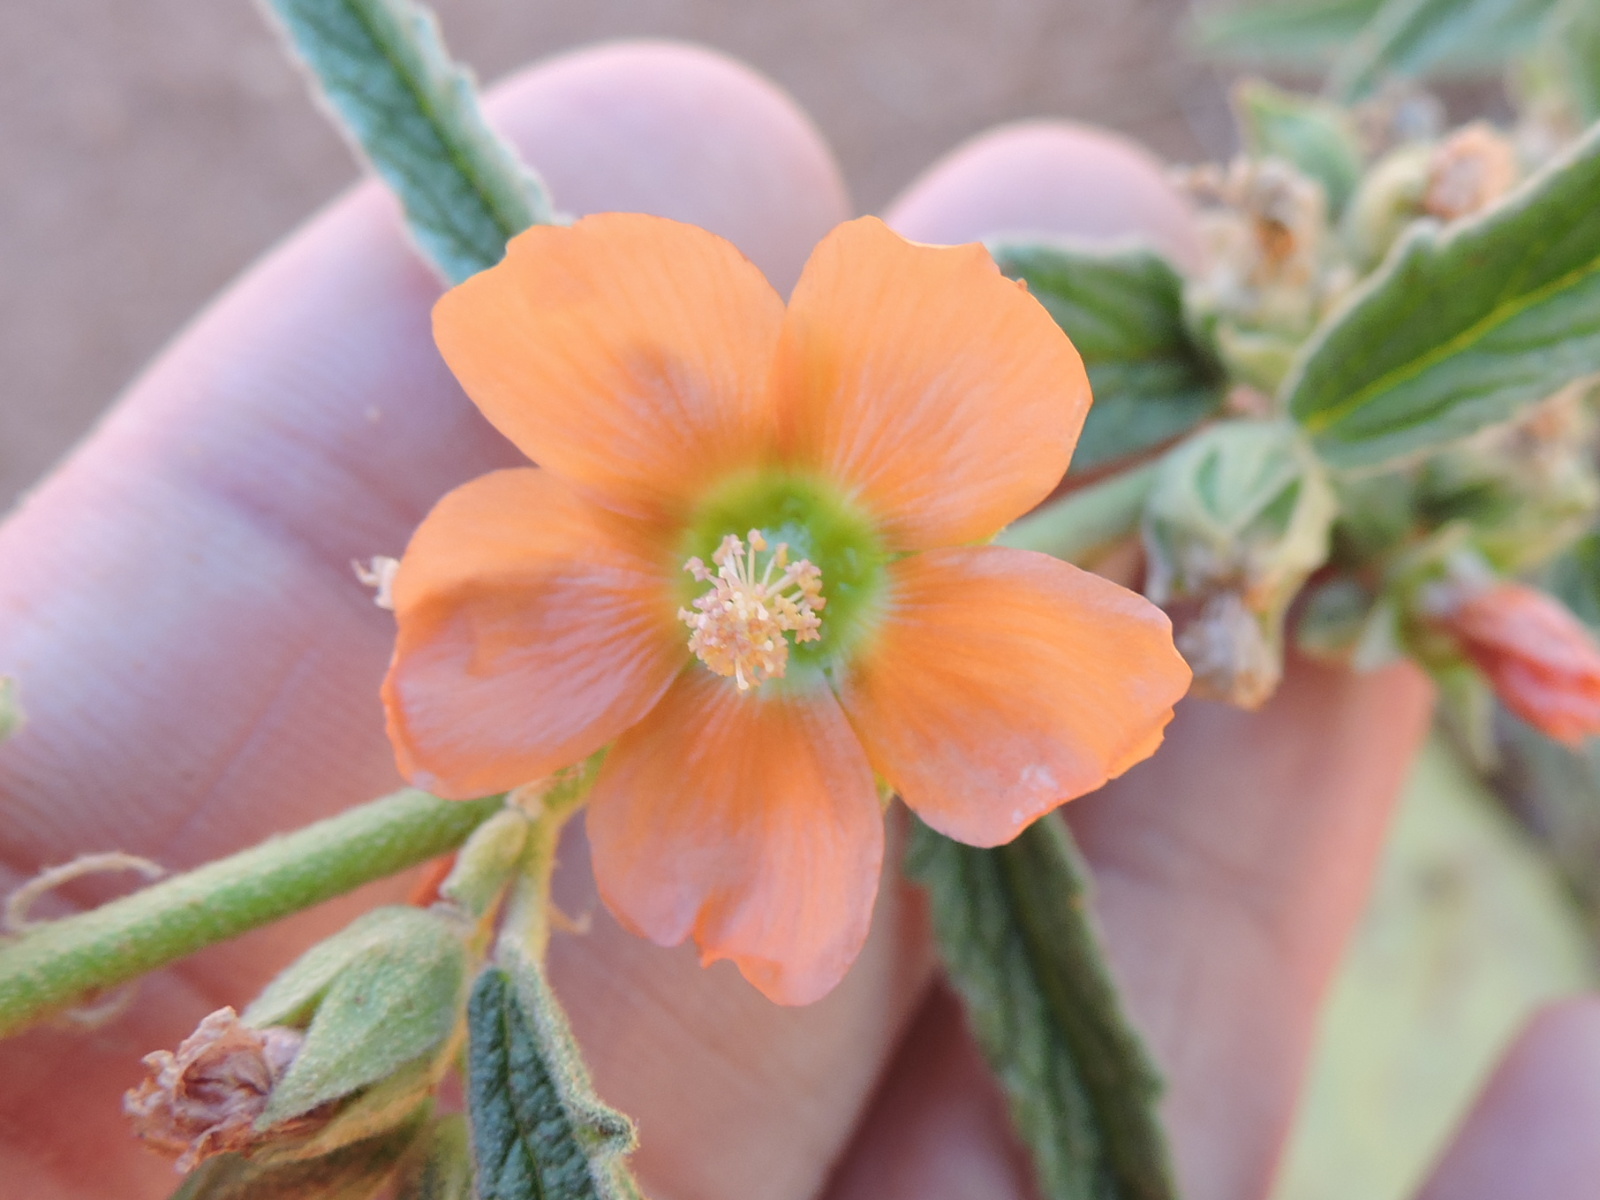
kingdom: Plantae
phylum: Tracheophyta
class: Magnoliopsida
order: Malvales
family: Malvaceae
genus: Sphaeralcea
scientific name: Sphaeralcea angustifolia
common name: Copper globe-mallow
